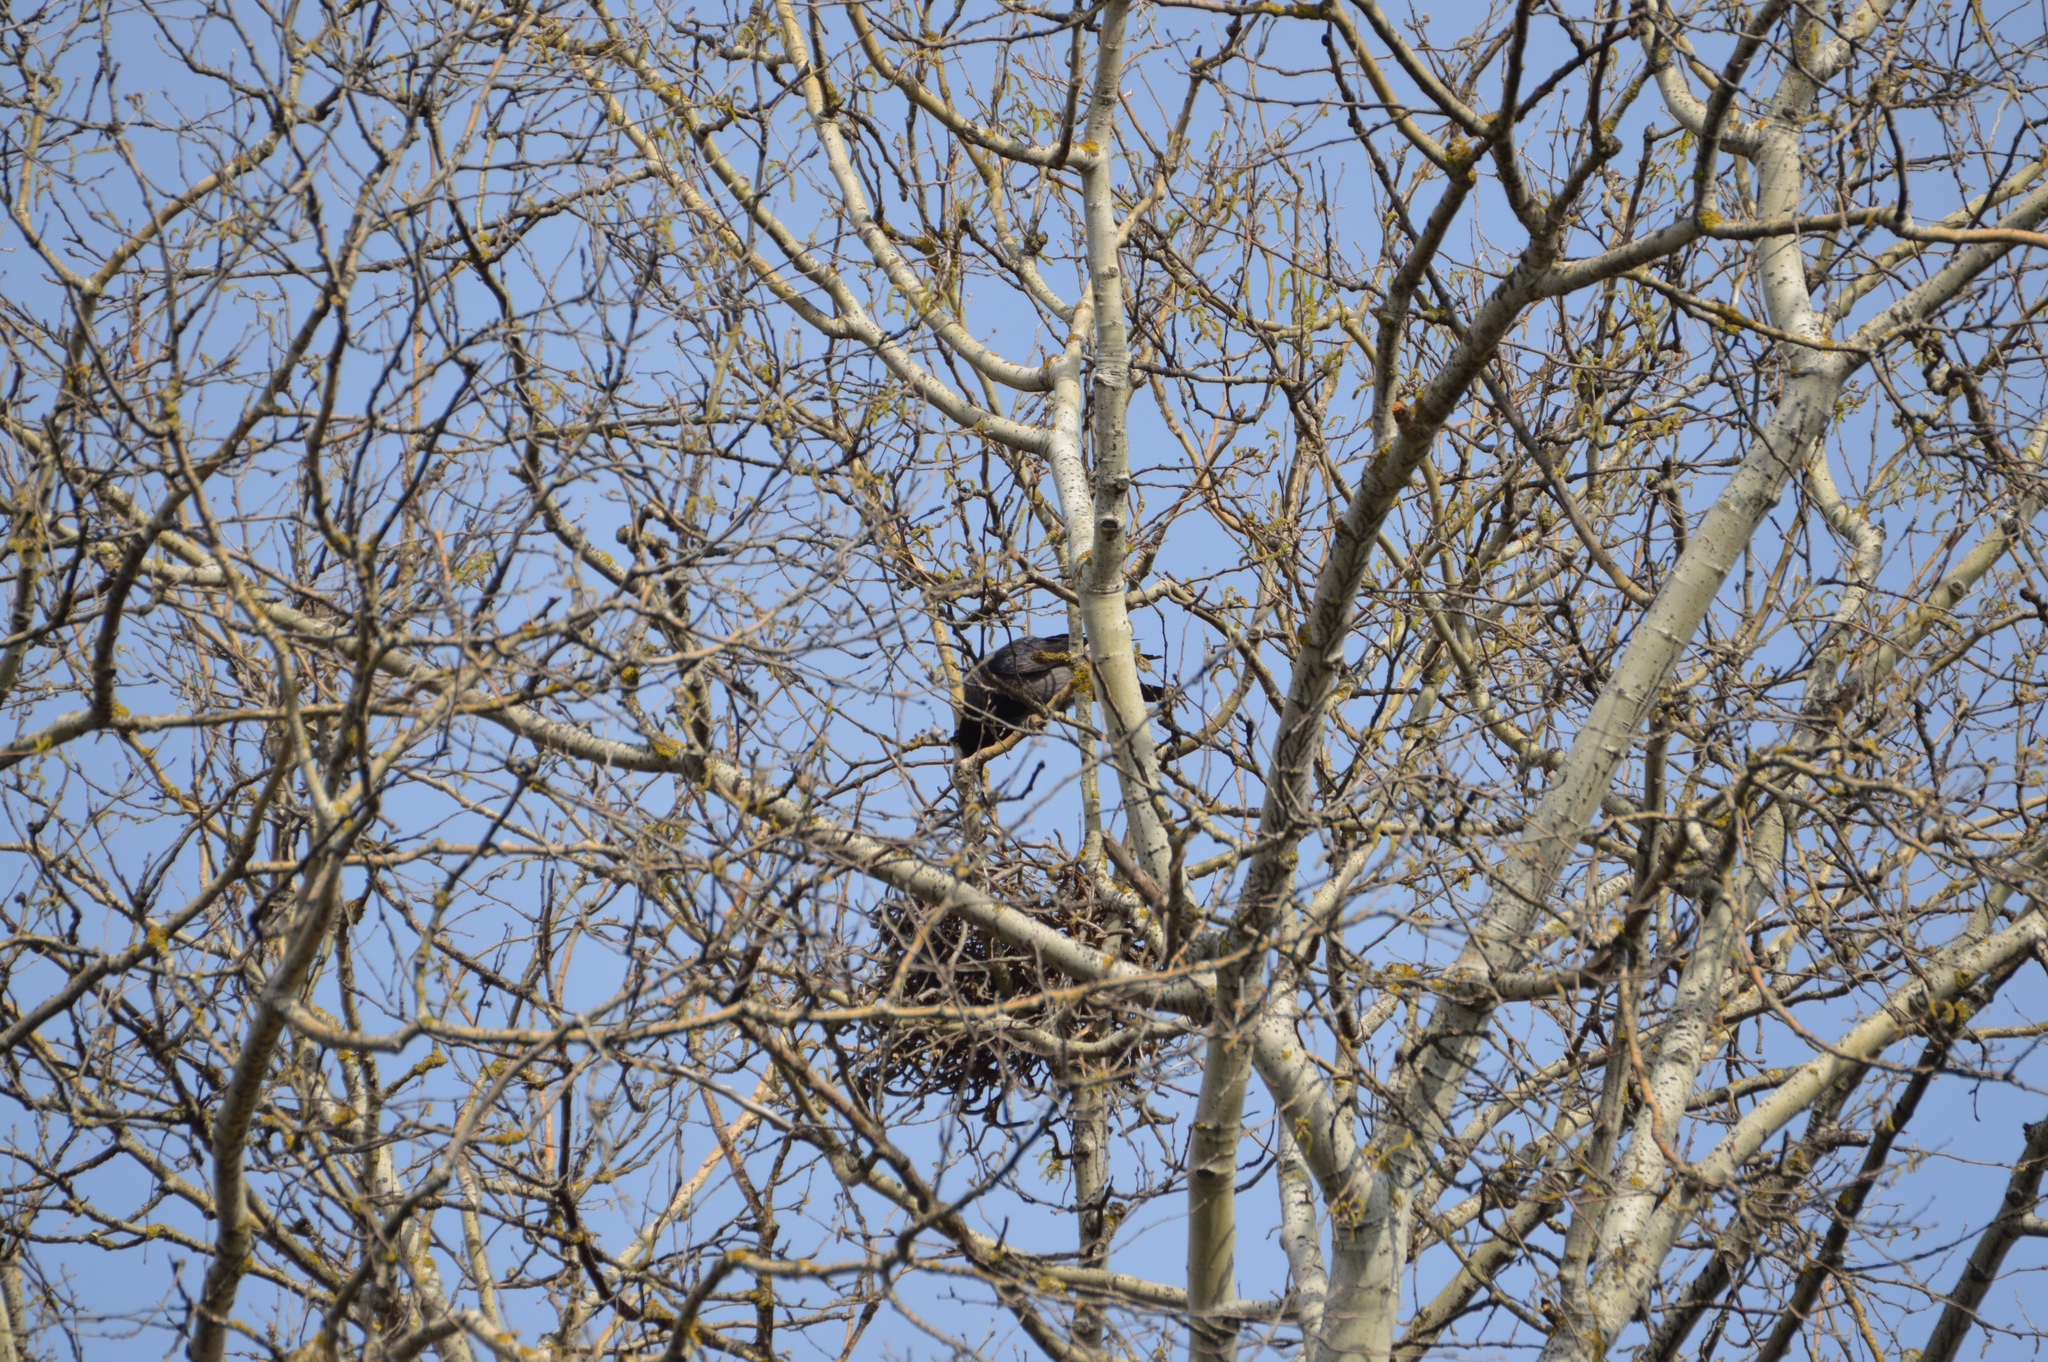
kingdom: Animalia
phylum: Chordata
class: Aves
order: Passeriformes
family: Corvidae
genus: Corvus
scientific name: Corvus
